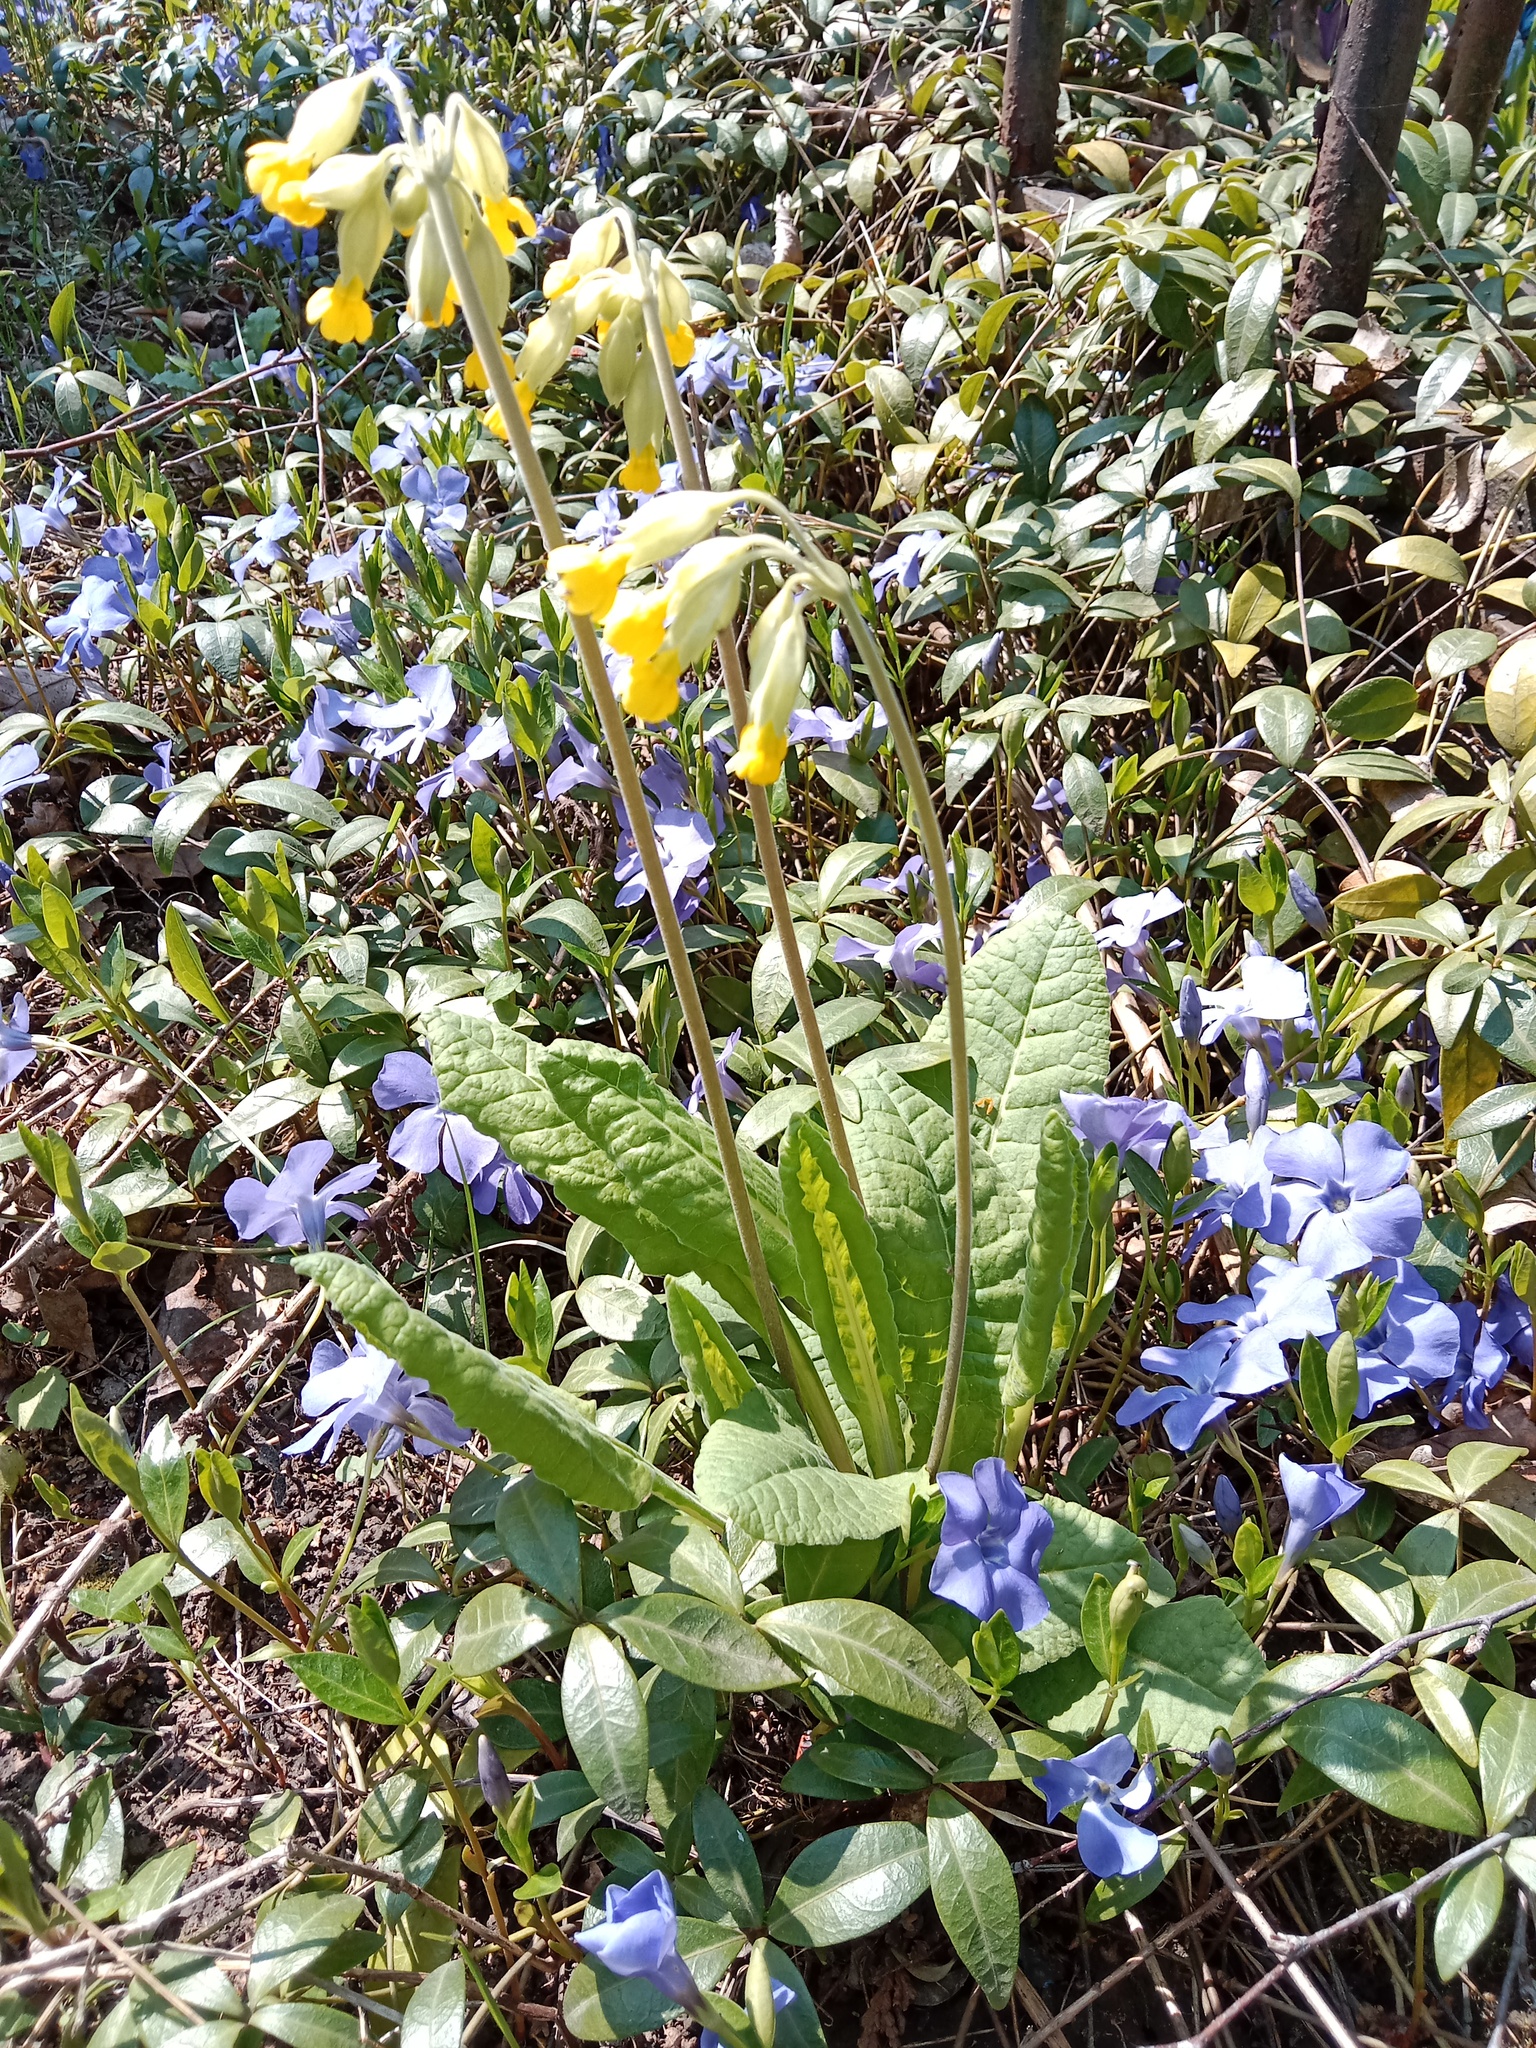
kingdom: Plantae
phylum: Tracheophyta
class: Magnoliopsida
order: Ericales
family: Primulaceae
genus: Primula
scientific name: Primula veris
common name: Cowslip
